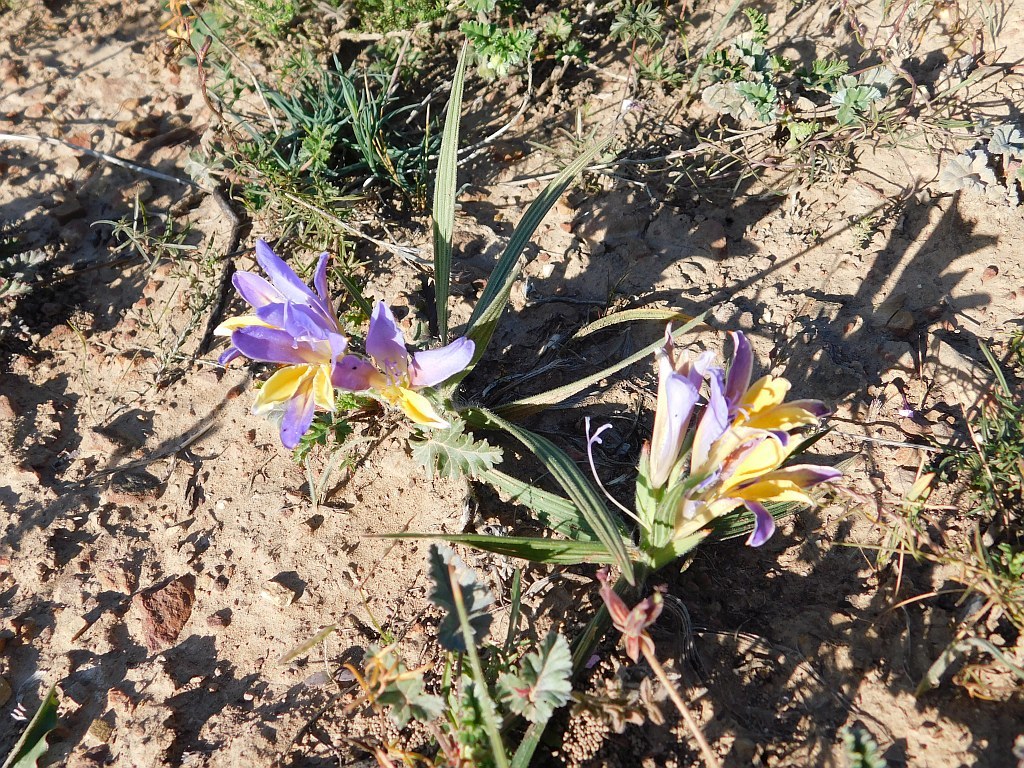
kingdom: Plantae
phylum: Tracheophyta
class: Liliopsida
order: Asparagales
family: Iridaceae
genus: Babiana
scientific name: Babiana patula
